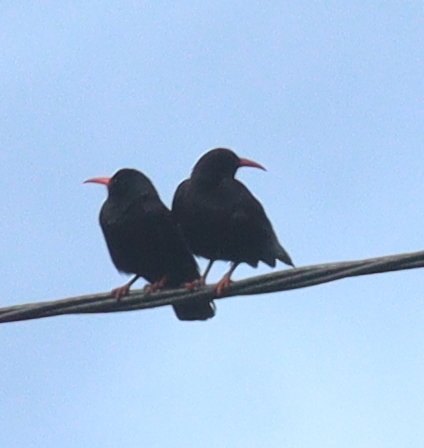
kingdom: Animalia
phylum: Chordata
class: Aves
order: Passeriformes
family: Corvidae
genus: Pyrrhocorax
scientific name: Pyrrhocorax pyrrhocorax
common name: Red-billed chough
